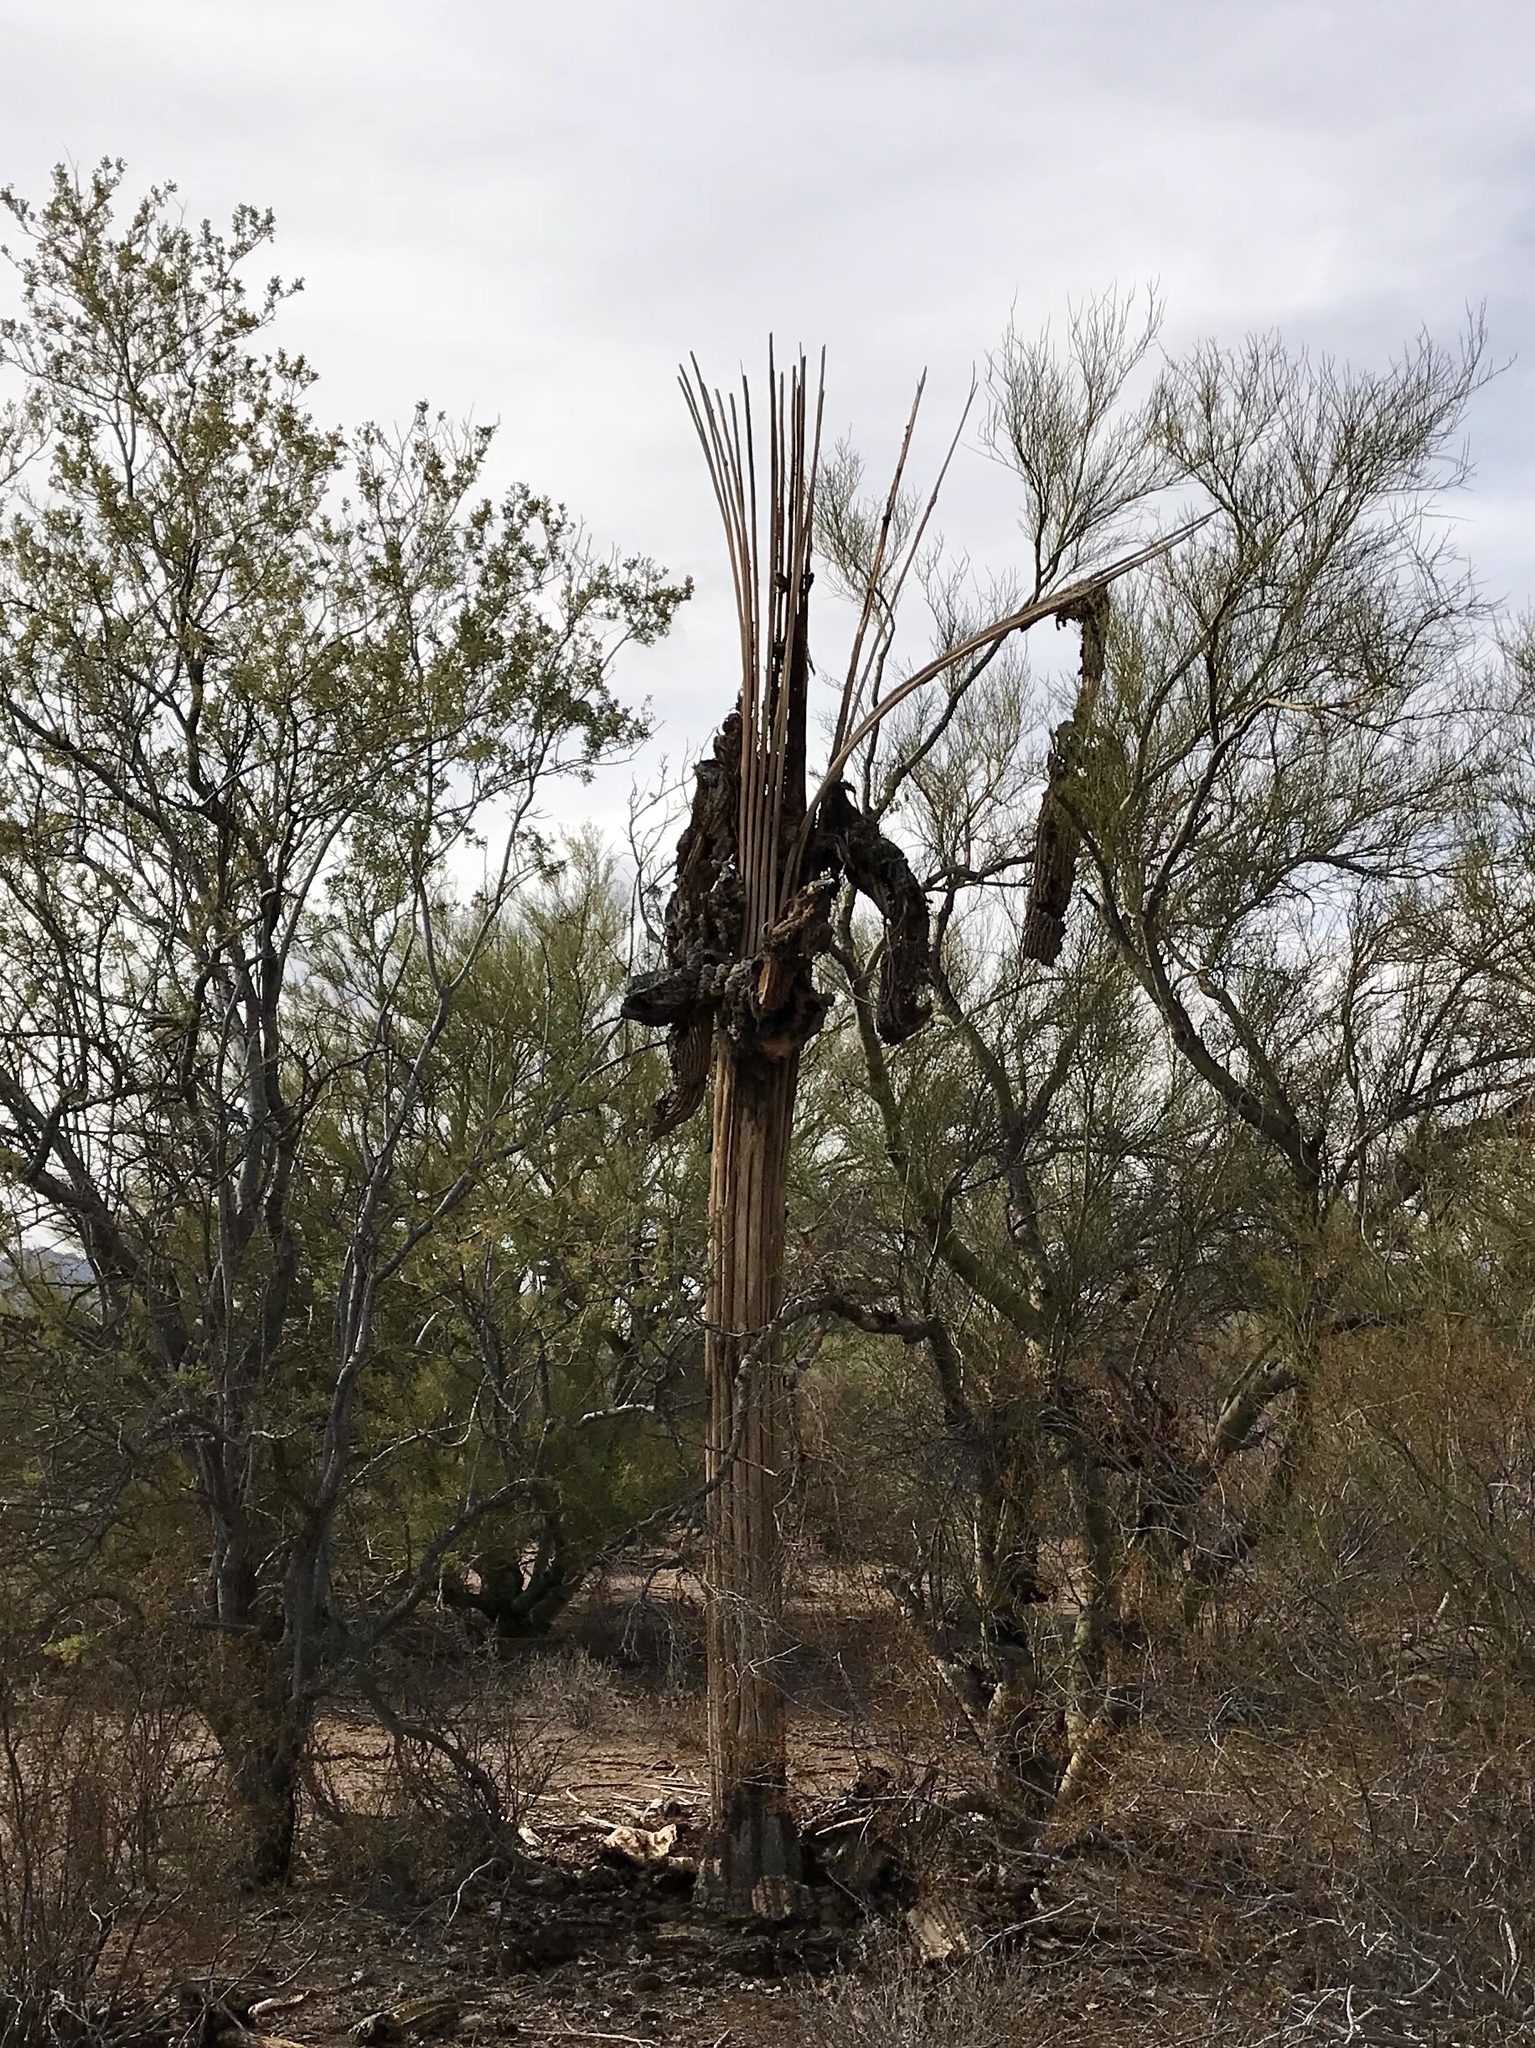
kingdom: Plantae
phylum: Tracheophyta
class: Magnoliopsida
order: Caryophyllales
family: Cactaceae
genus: Carnegiea
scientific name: Carnegiea gigantea
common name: Saguaro
